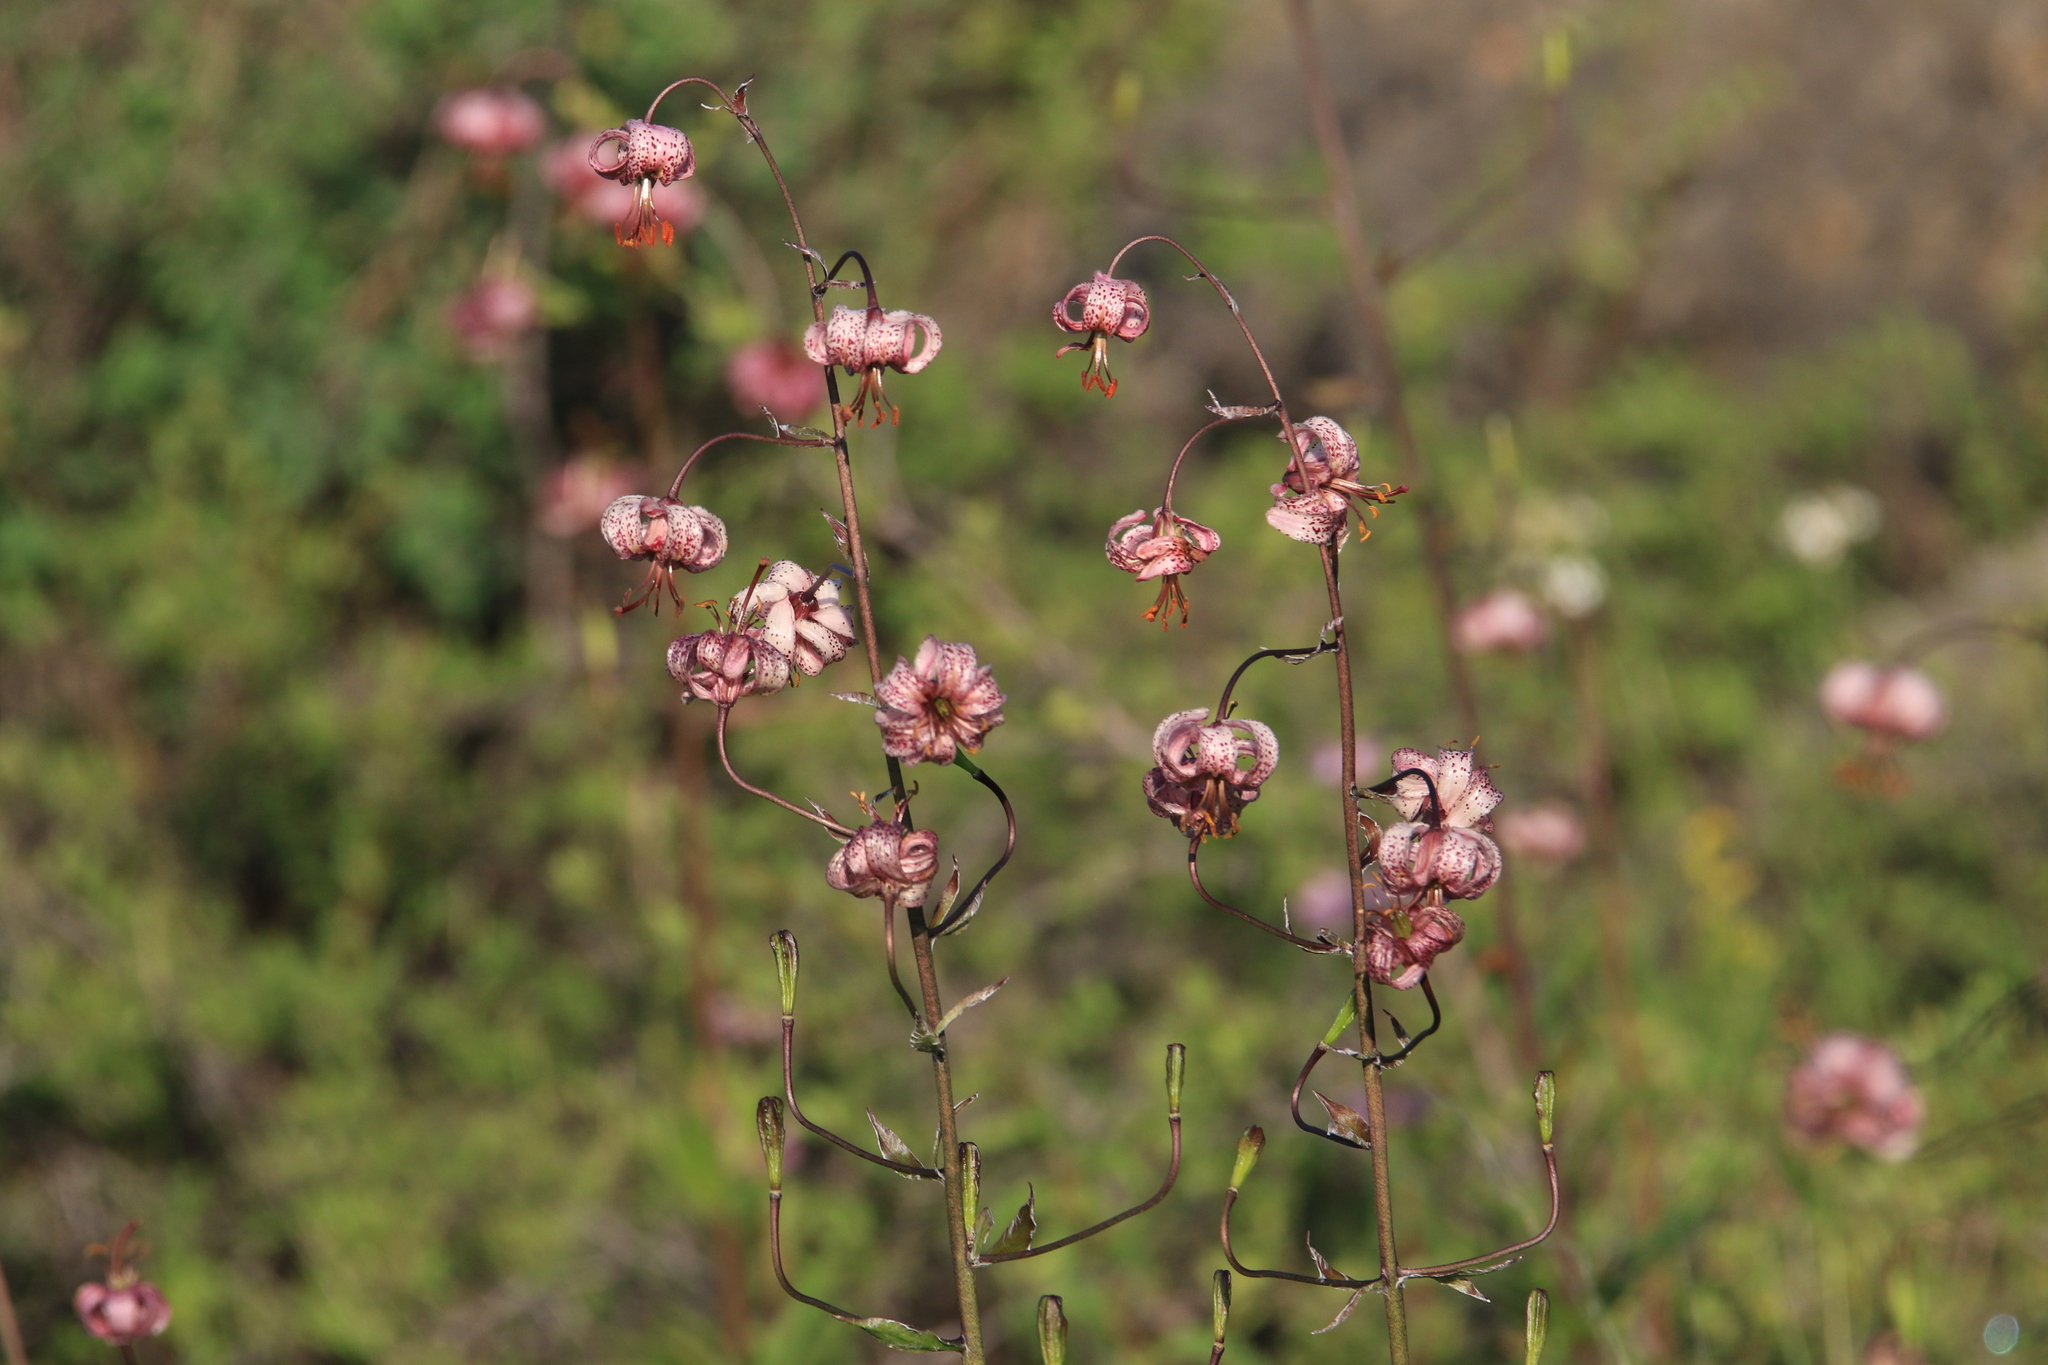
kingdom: Plantae
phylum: Tracheophyta
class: Liliopsida
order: Liliales
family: Liliaceae
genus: Lilium
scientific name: Lilium martagon
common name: Martagon lily
